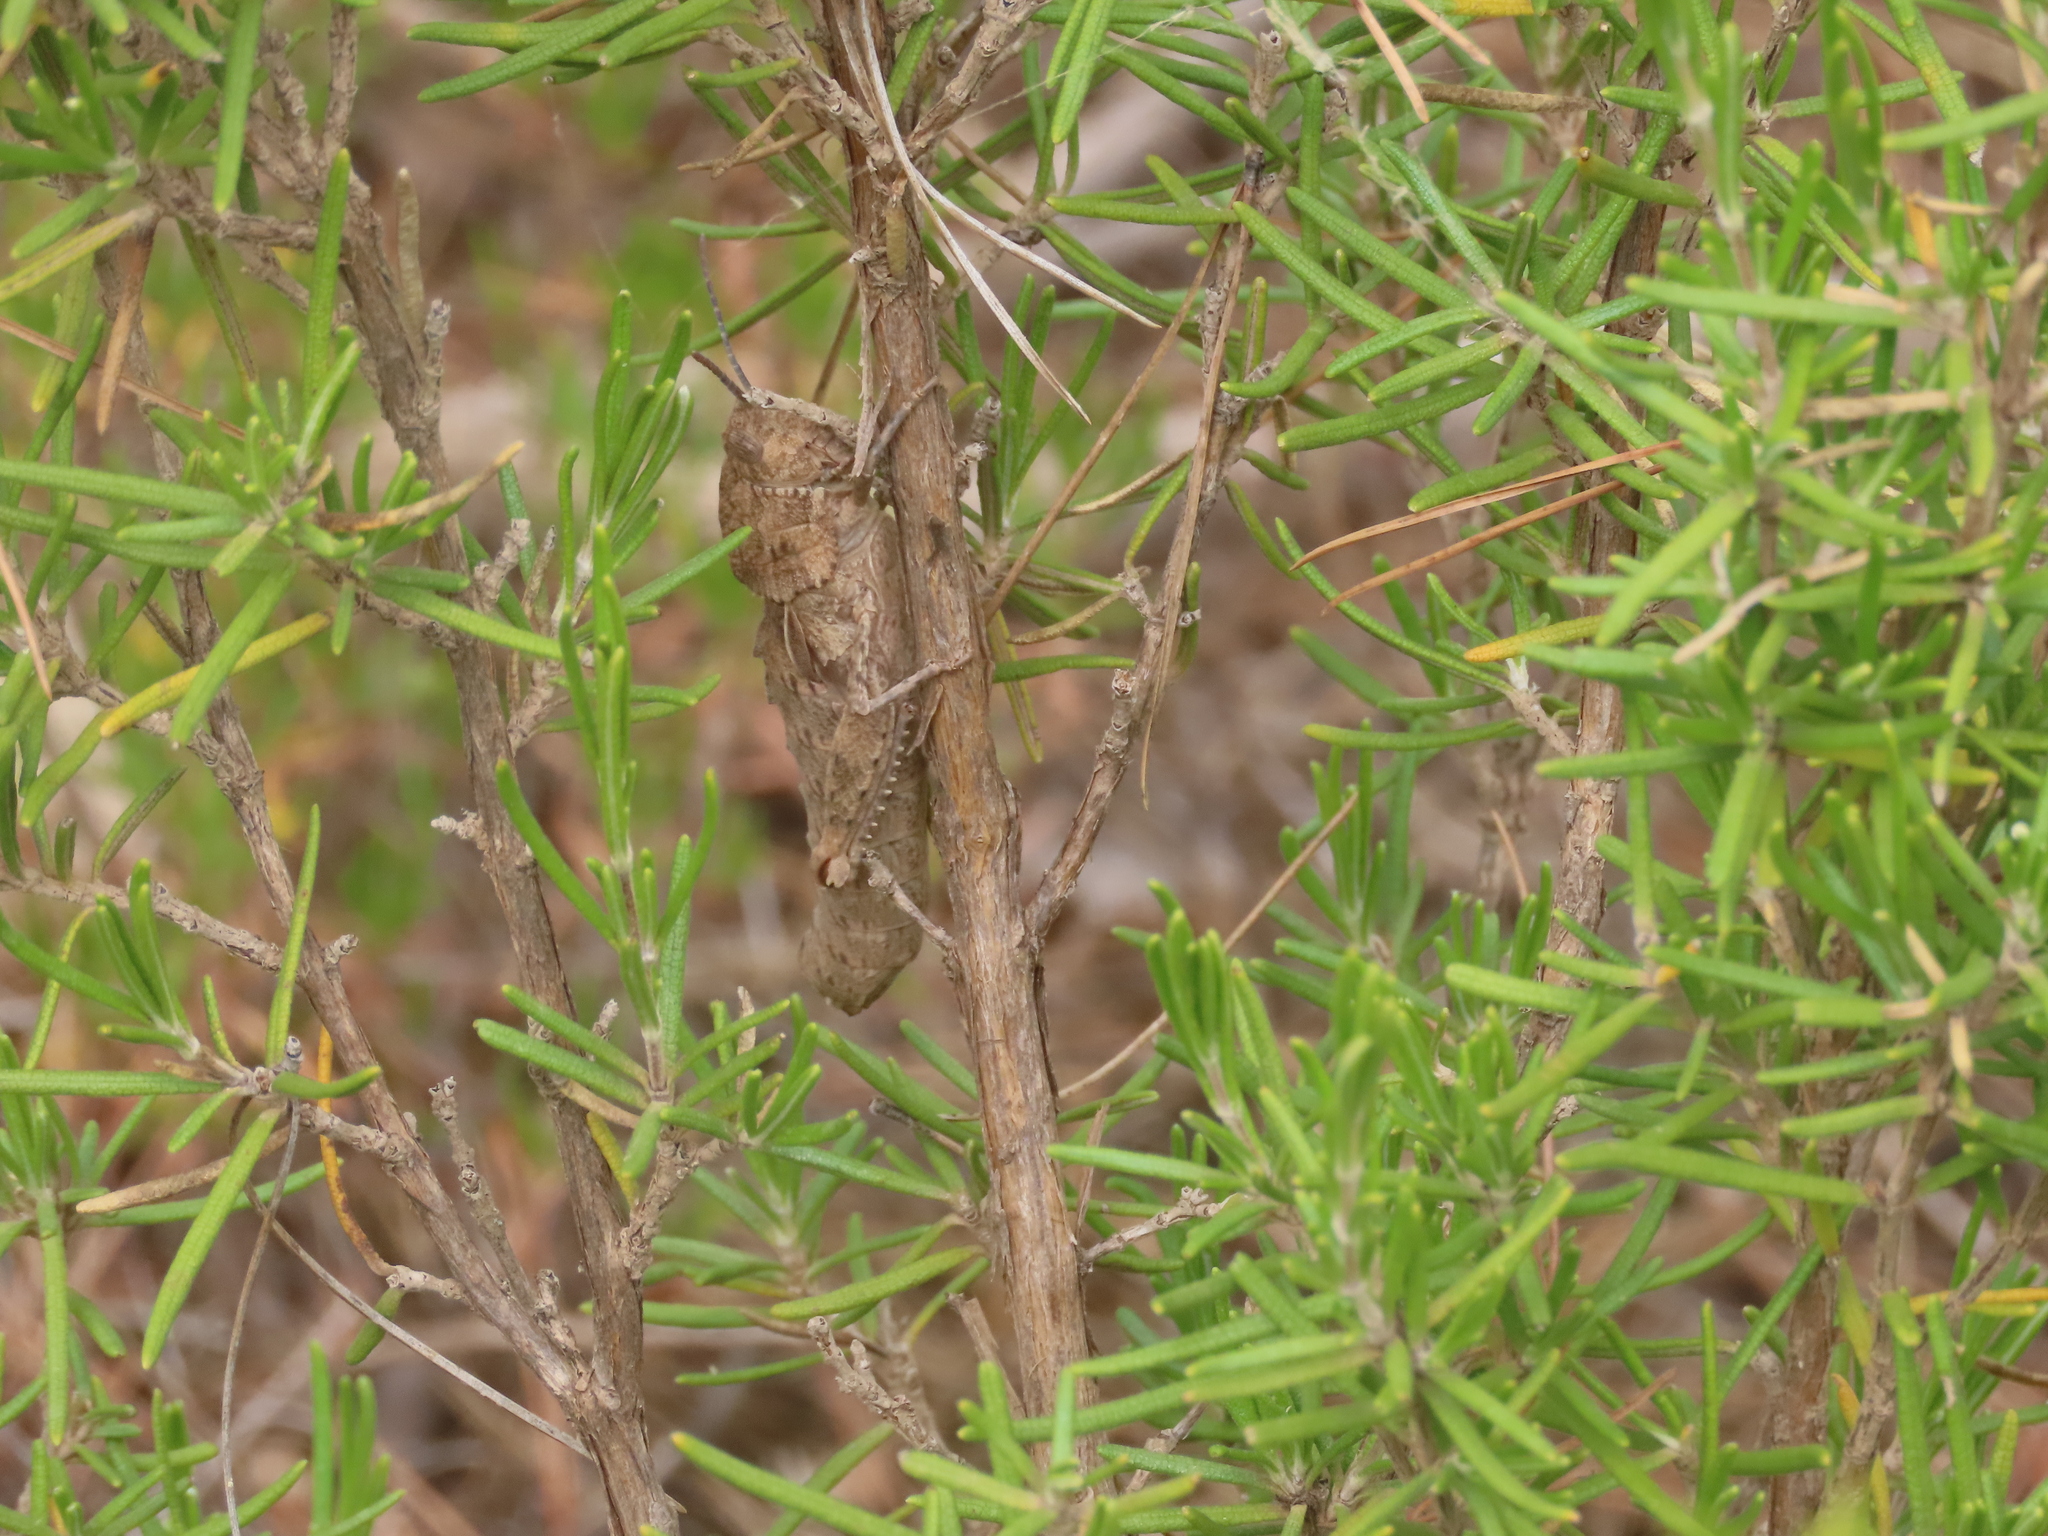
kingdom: Animalia
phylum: Arthropoda
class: Insecta
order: Orthoptera
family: Pamphagidae
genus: Eumigus
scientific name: Eumigus cucullatus
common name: Hooded stone grasshopper
